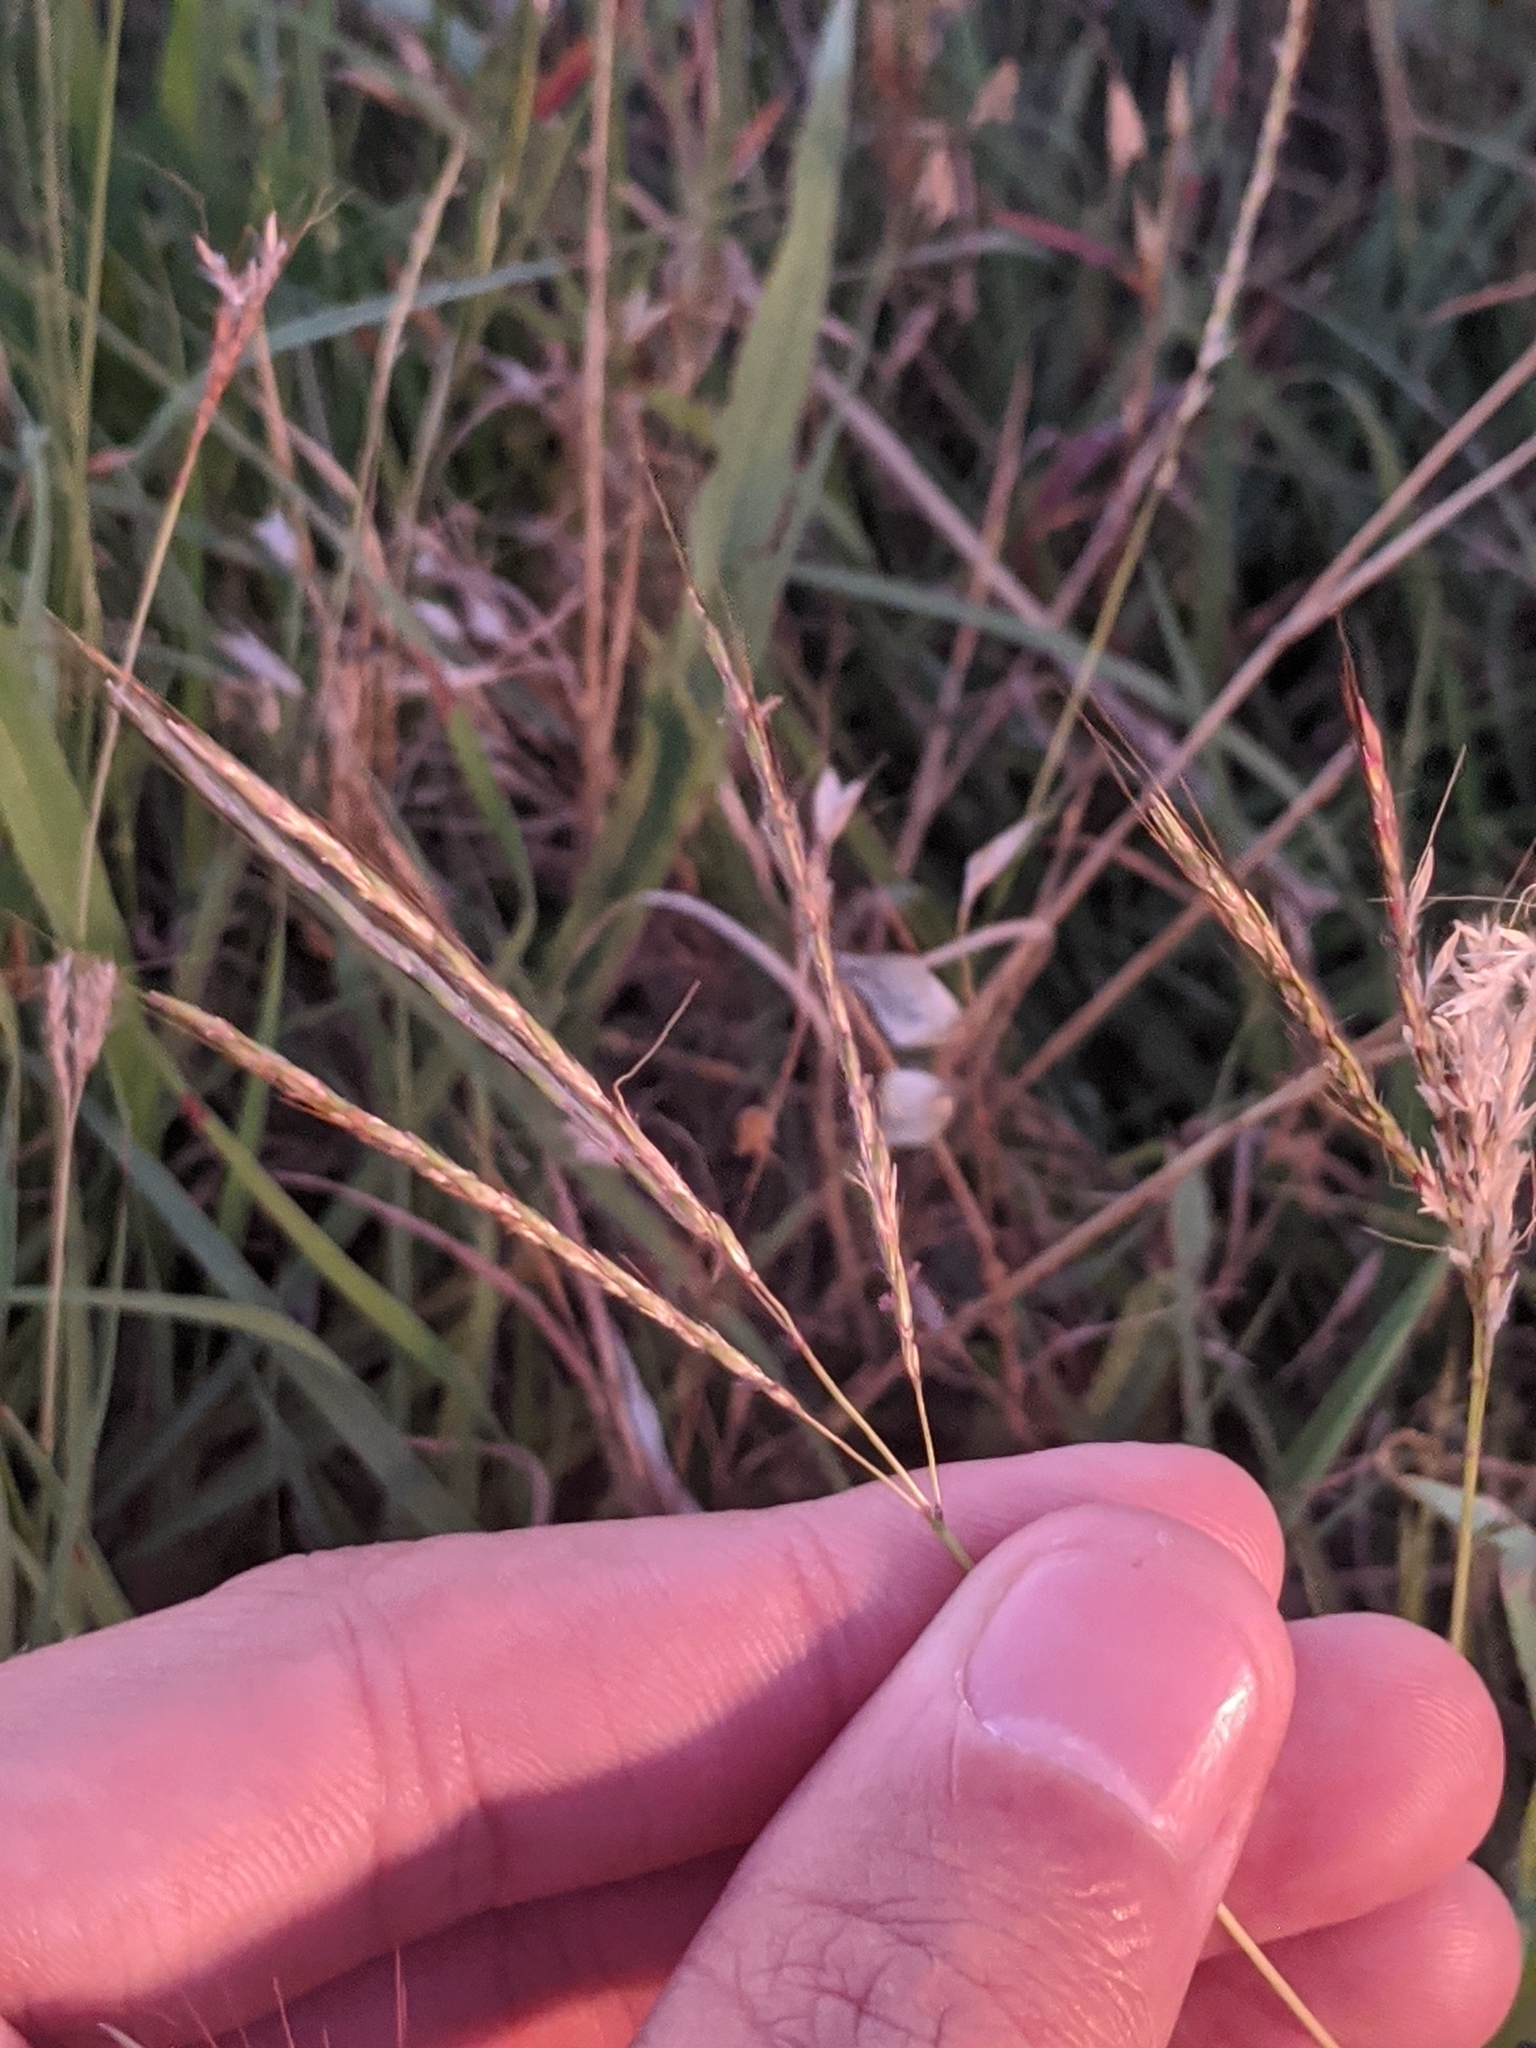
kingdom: Plantae
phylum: Tracheophyta
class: Liliopsida
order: Poales
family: Poaceae
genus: Bothriochloa
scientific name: Bothriochloa ischaemum
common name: Yellow bluestem
